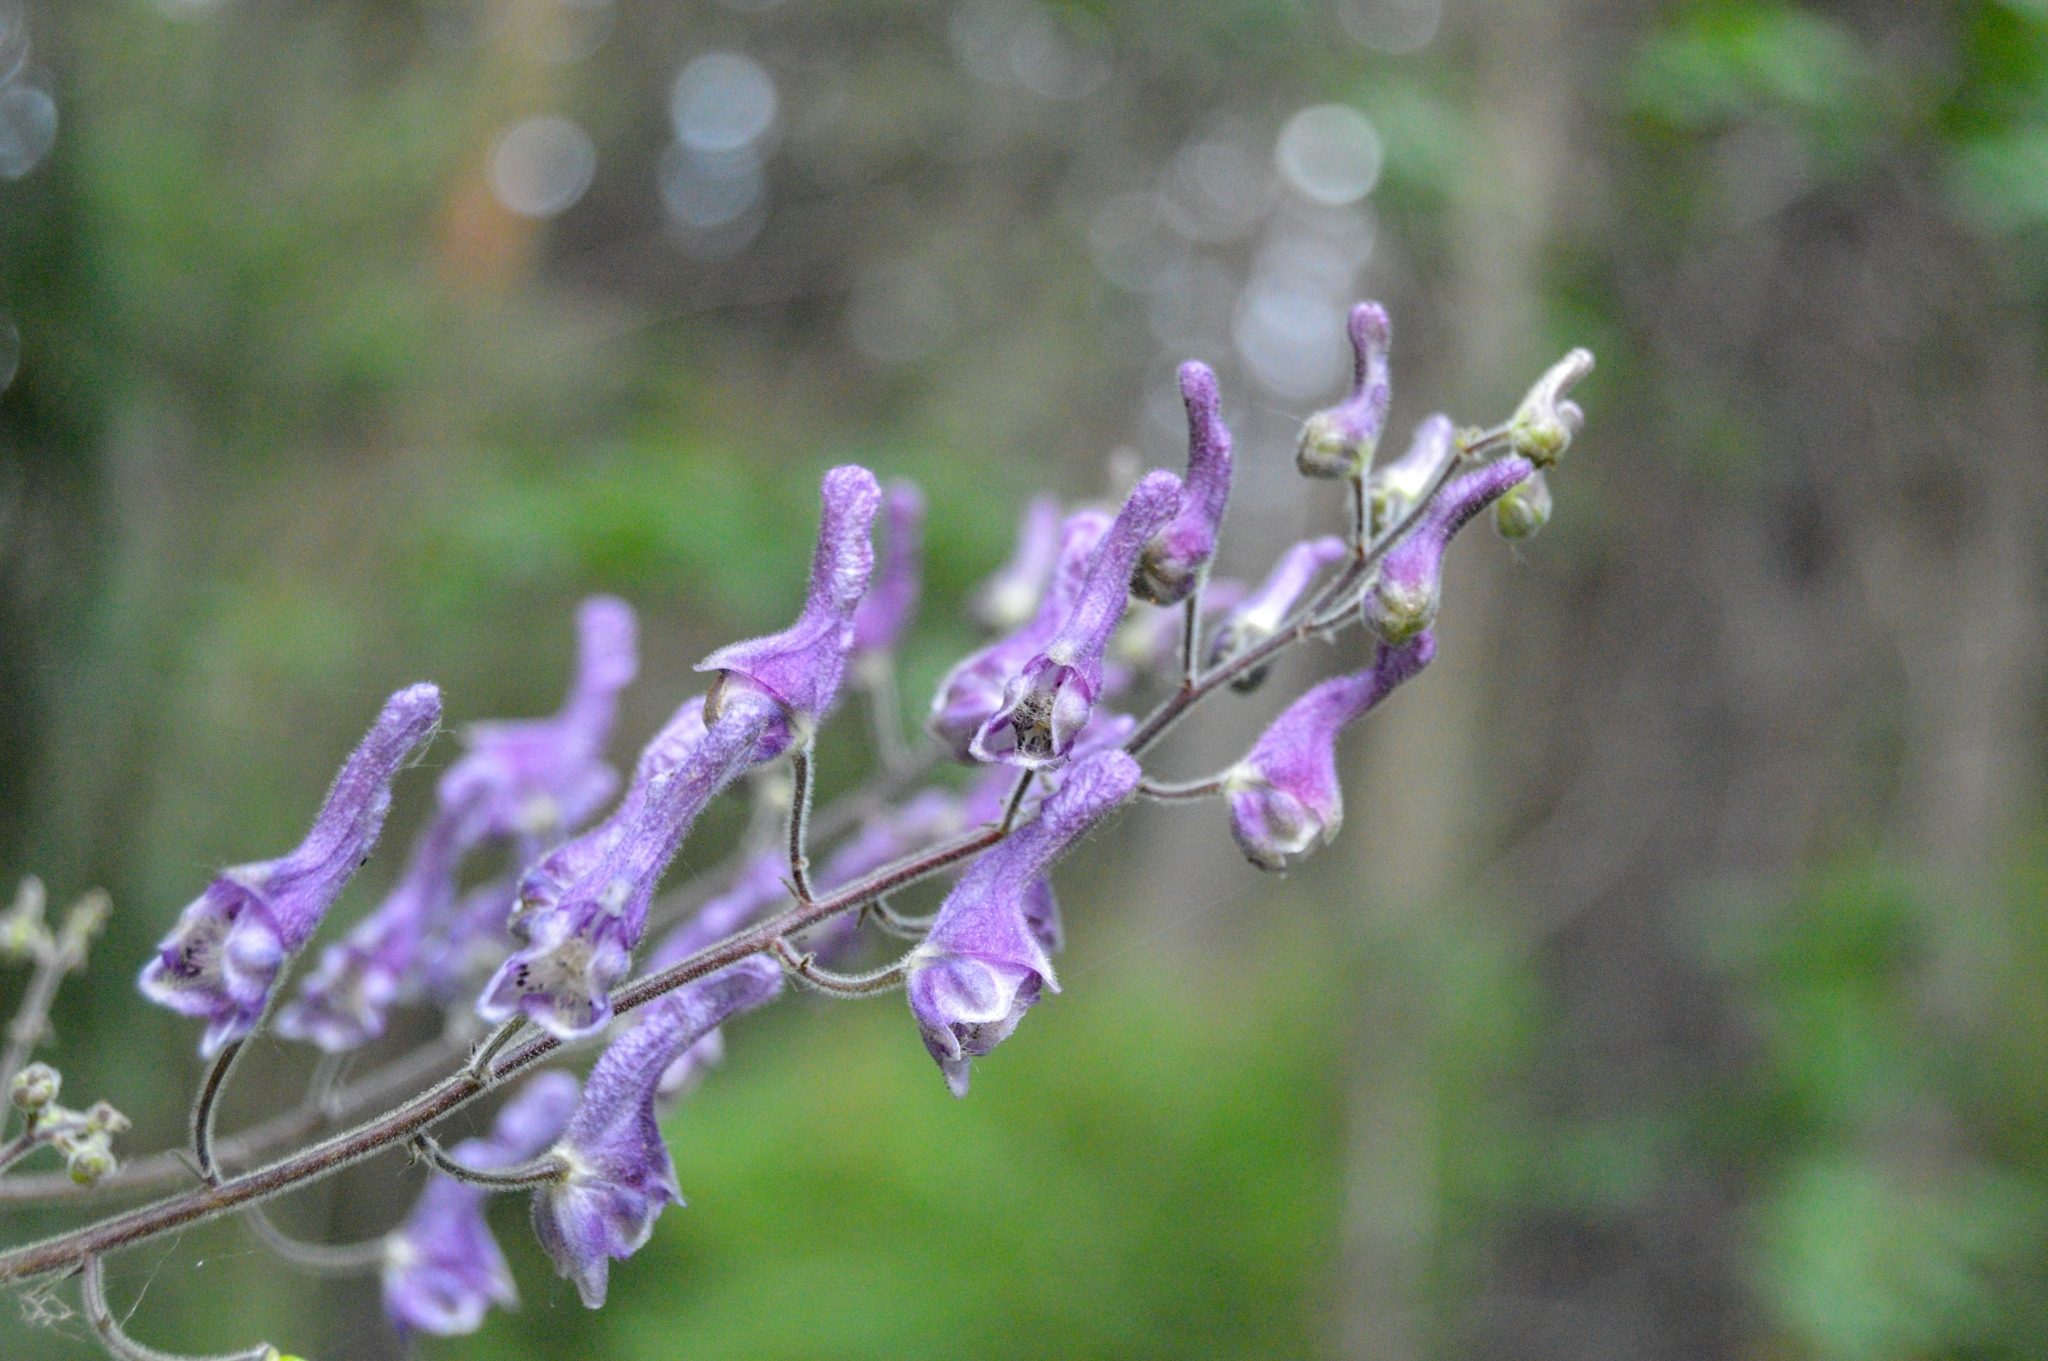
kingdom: Plantae
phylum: Tracheophyta
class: Magnoliopsida
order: Ranunculales
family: Ranunculaceae
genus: Aconitum
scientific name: Aconitum septentrionale
